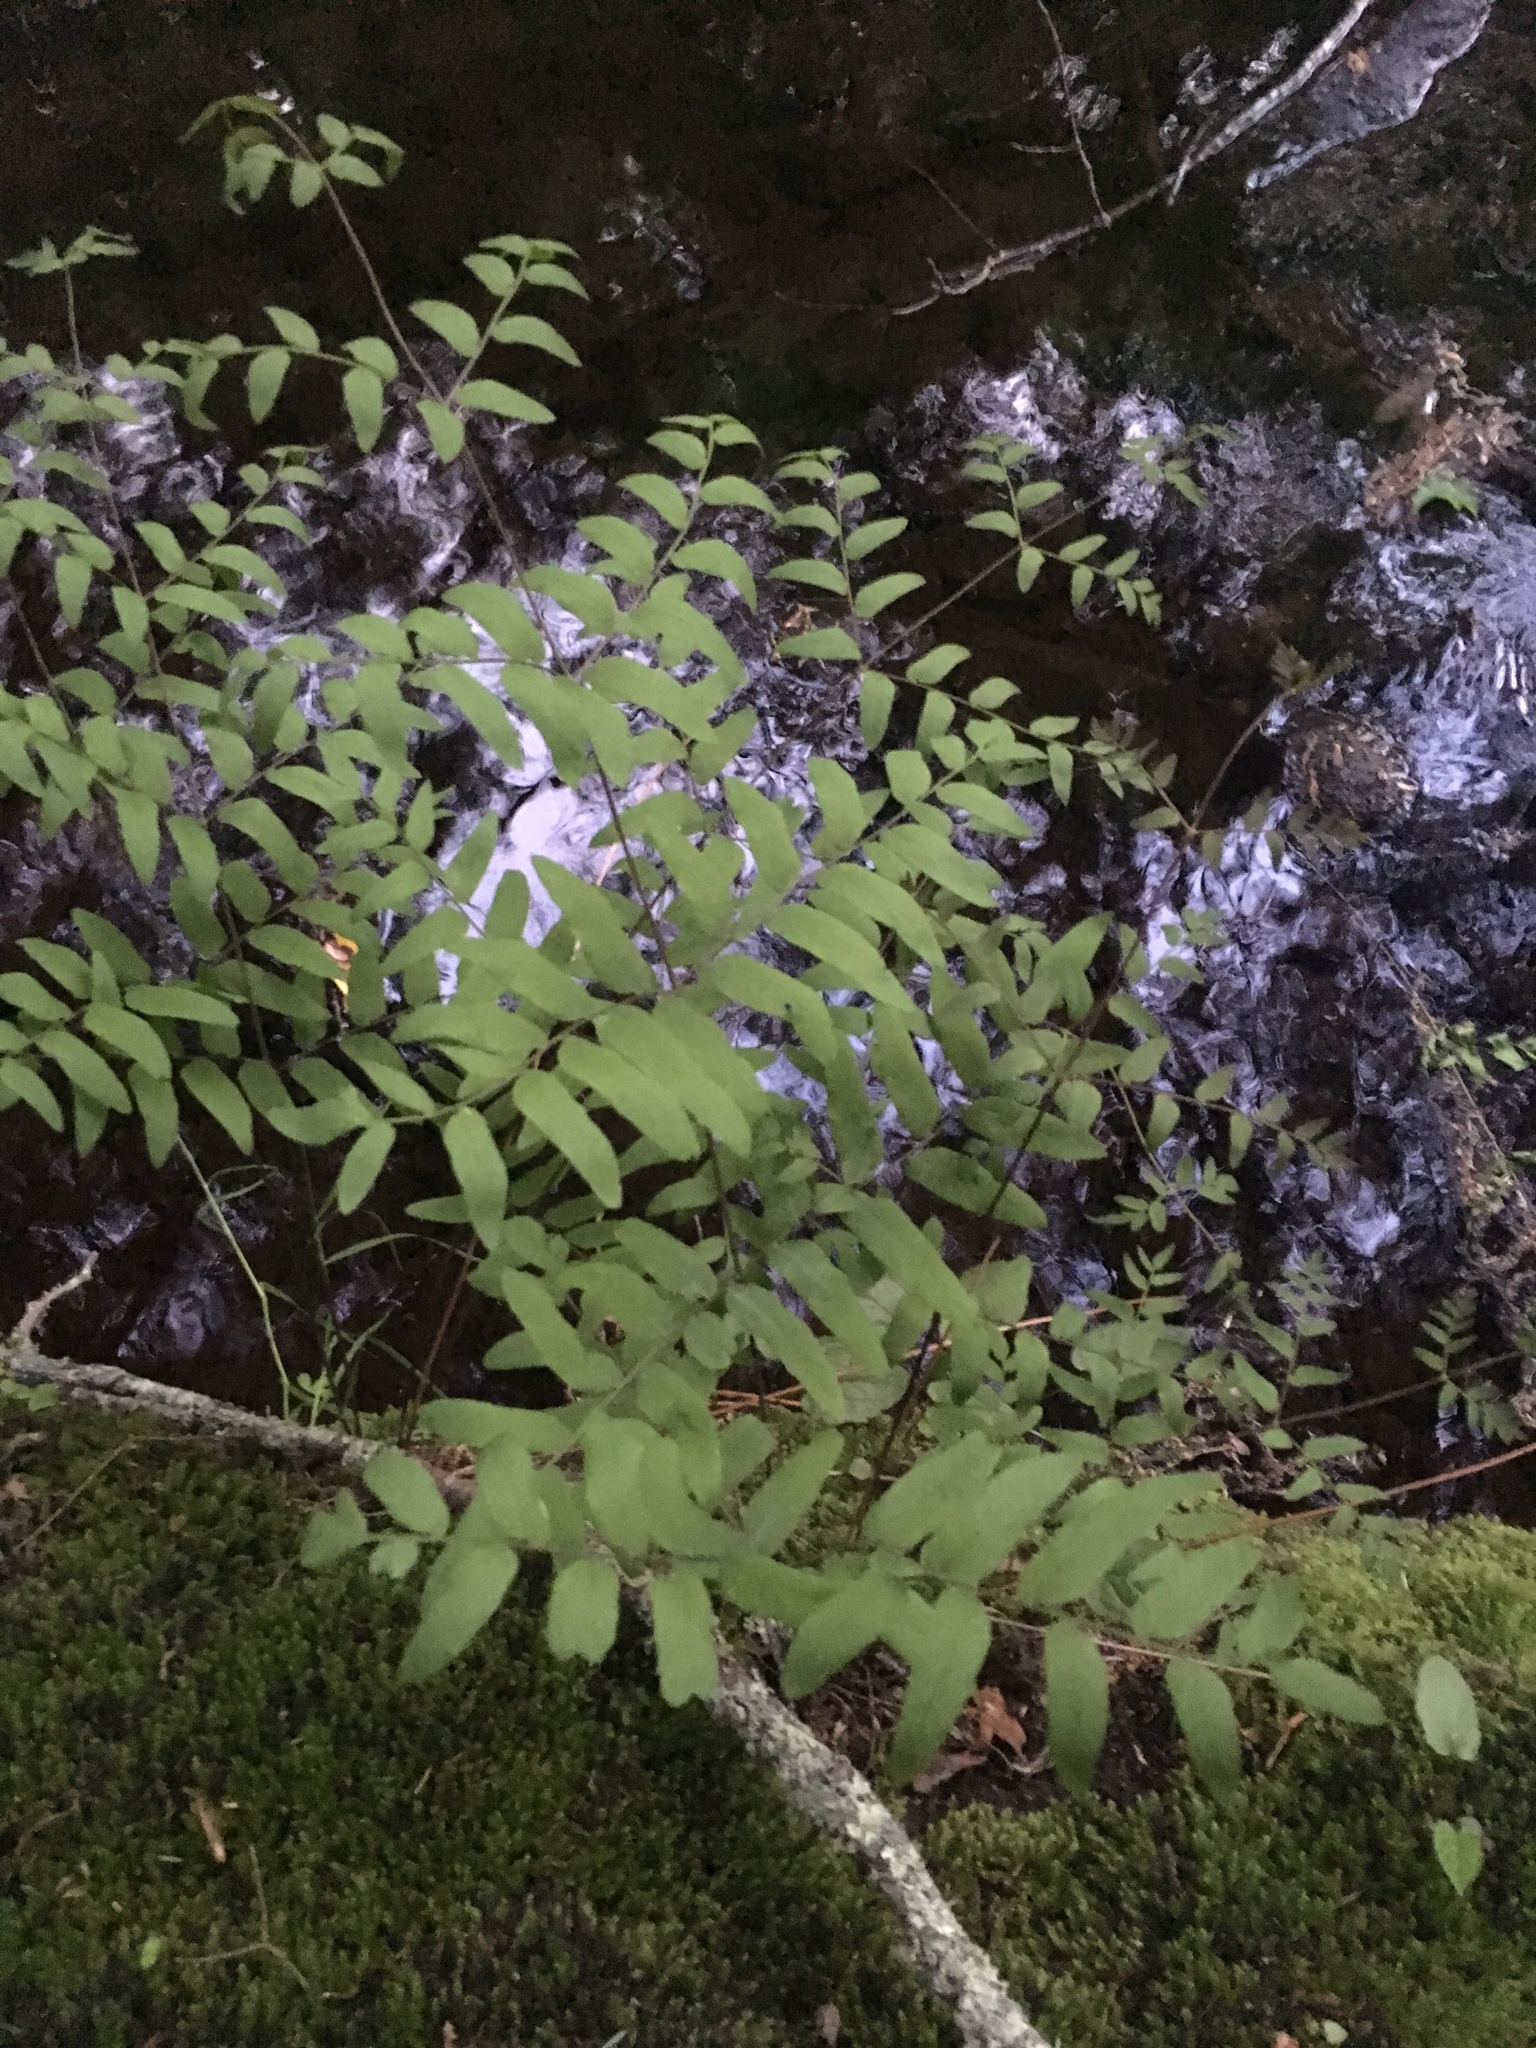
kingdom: Plantae
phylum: Tracheophyta
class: Polypodiopsida
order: Osmundales
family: Osmundaceae
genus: Osmunda
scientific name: Osmunda spectabilis
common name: American royal fern
